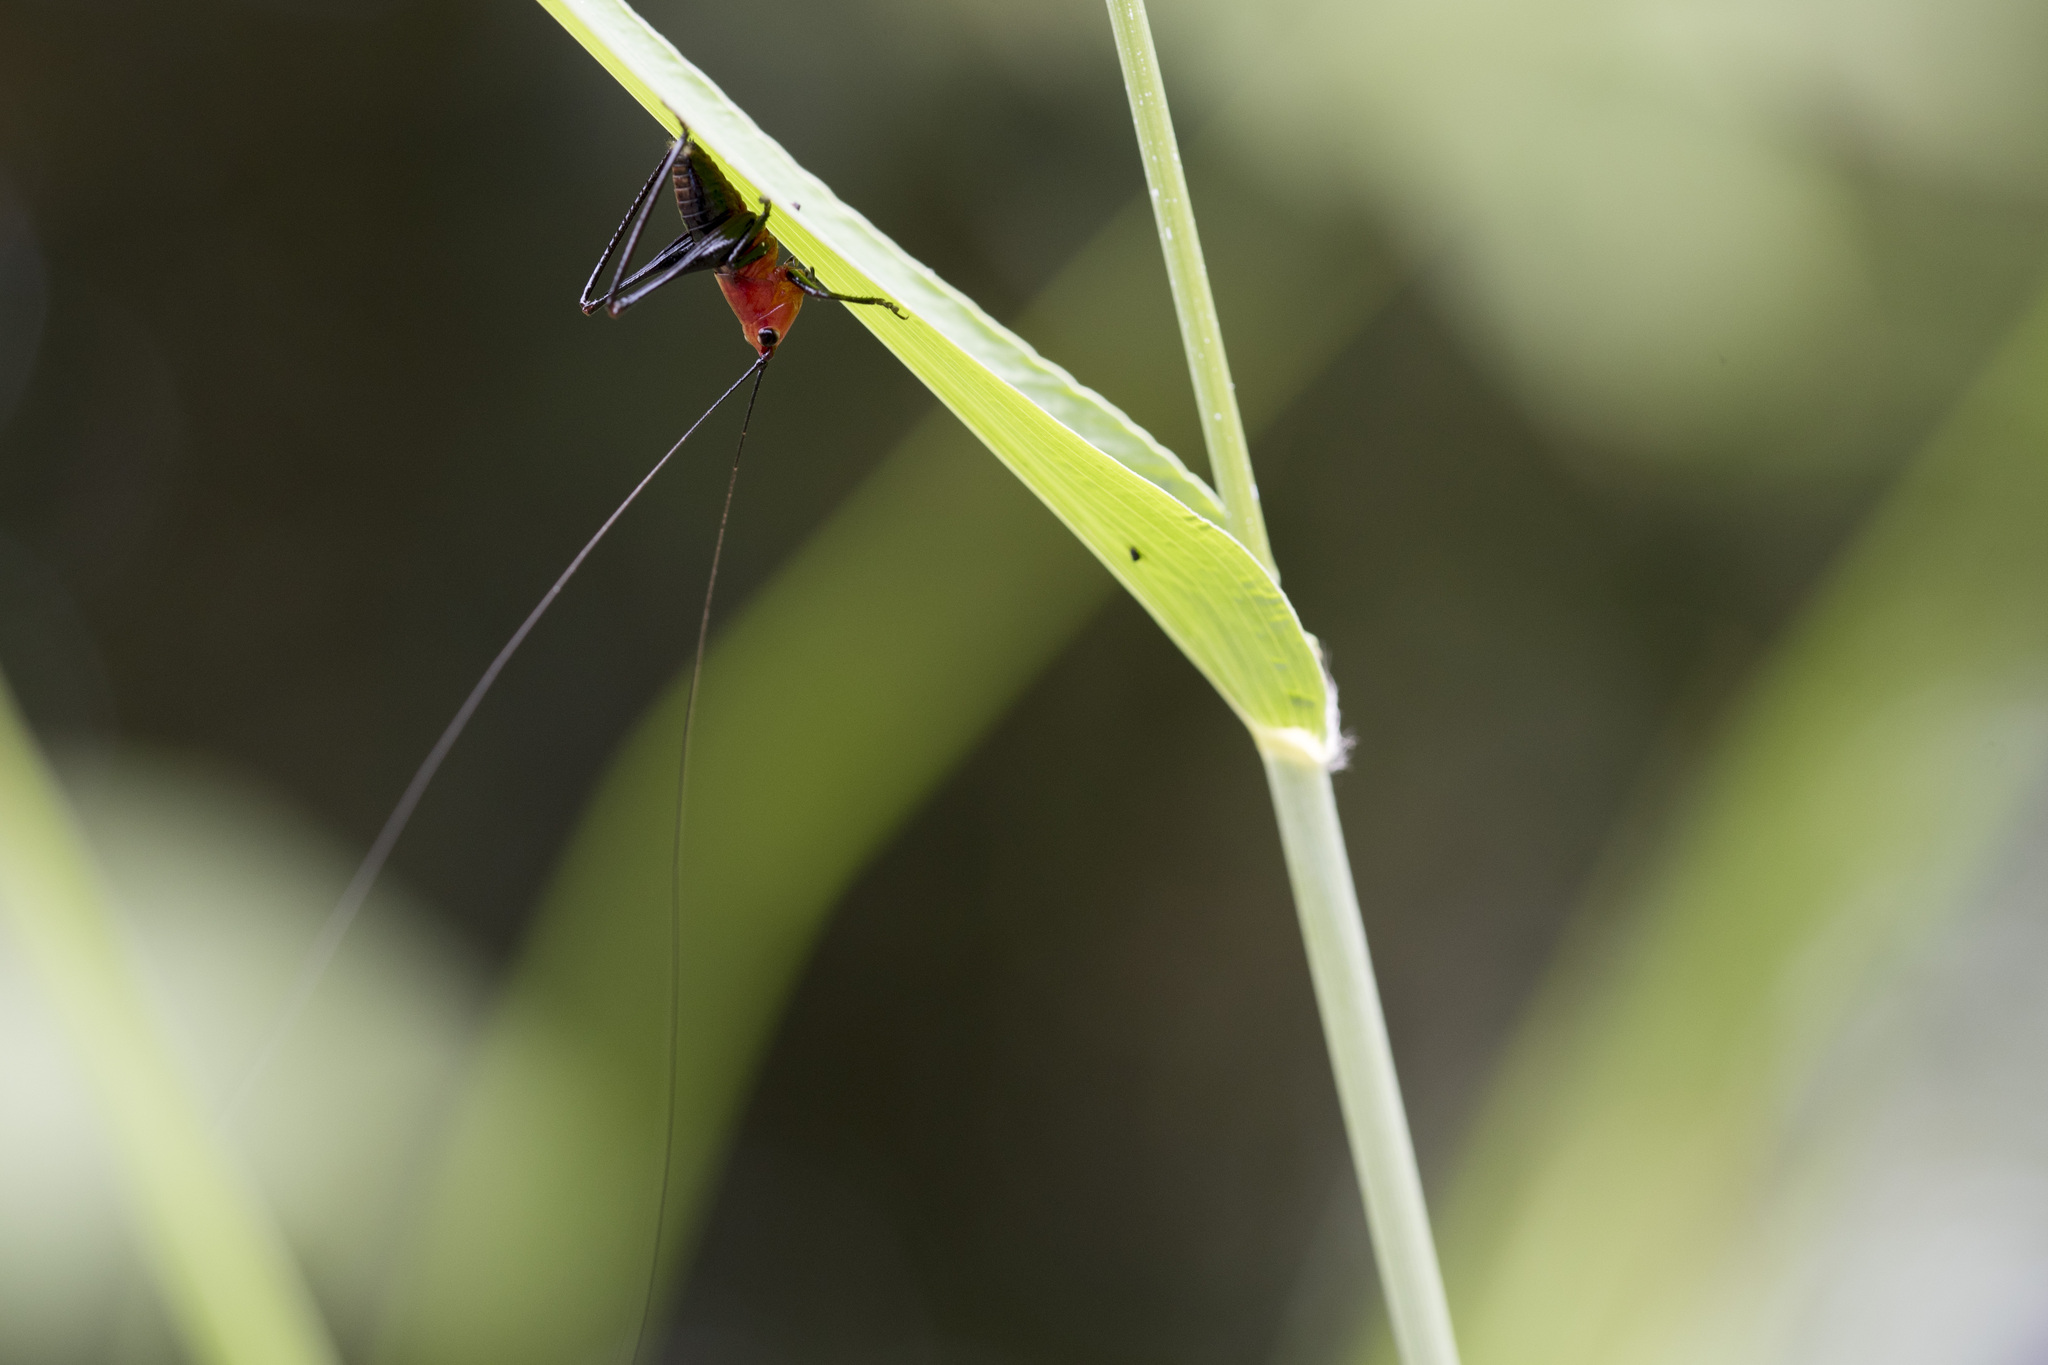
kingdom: Animalia
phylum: Arthropoda
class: Insecta
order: Orthoptera
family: Tettigoniidae
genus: Conocephalus
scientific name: Conocephalus melaenus
